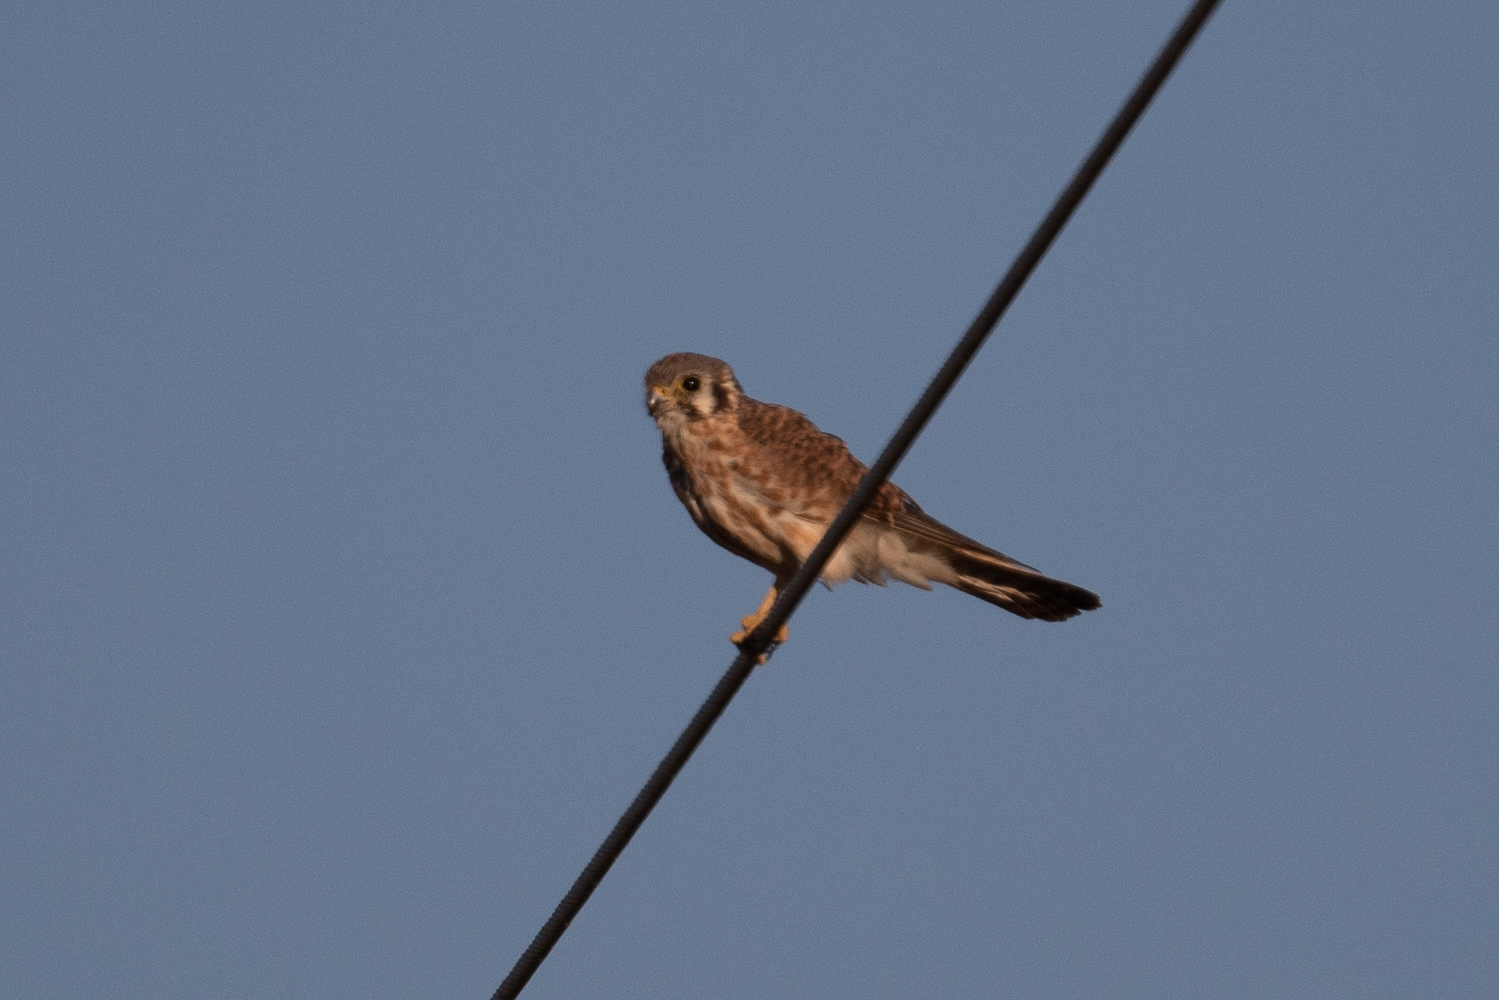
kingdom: Animalia
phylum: Chordata
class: Aves
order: Falconiformes
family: Falconidae
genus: Falco
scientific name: Falco sparverius
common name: American kestrel
